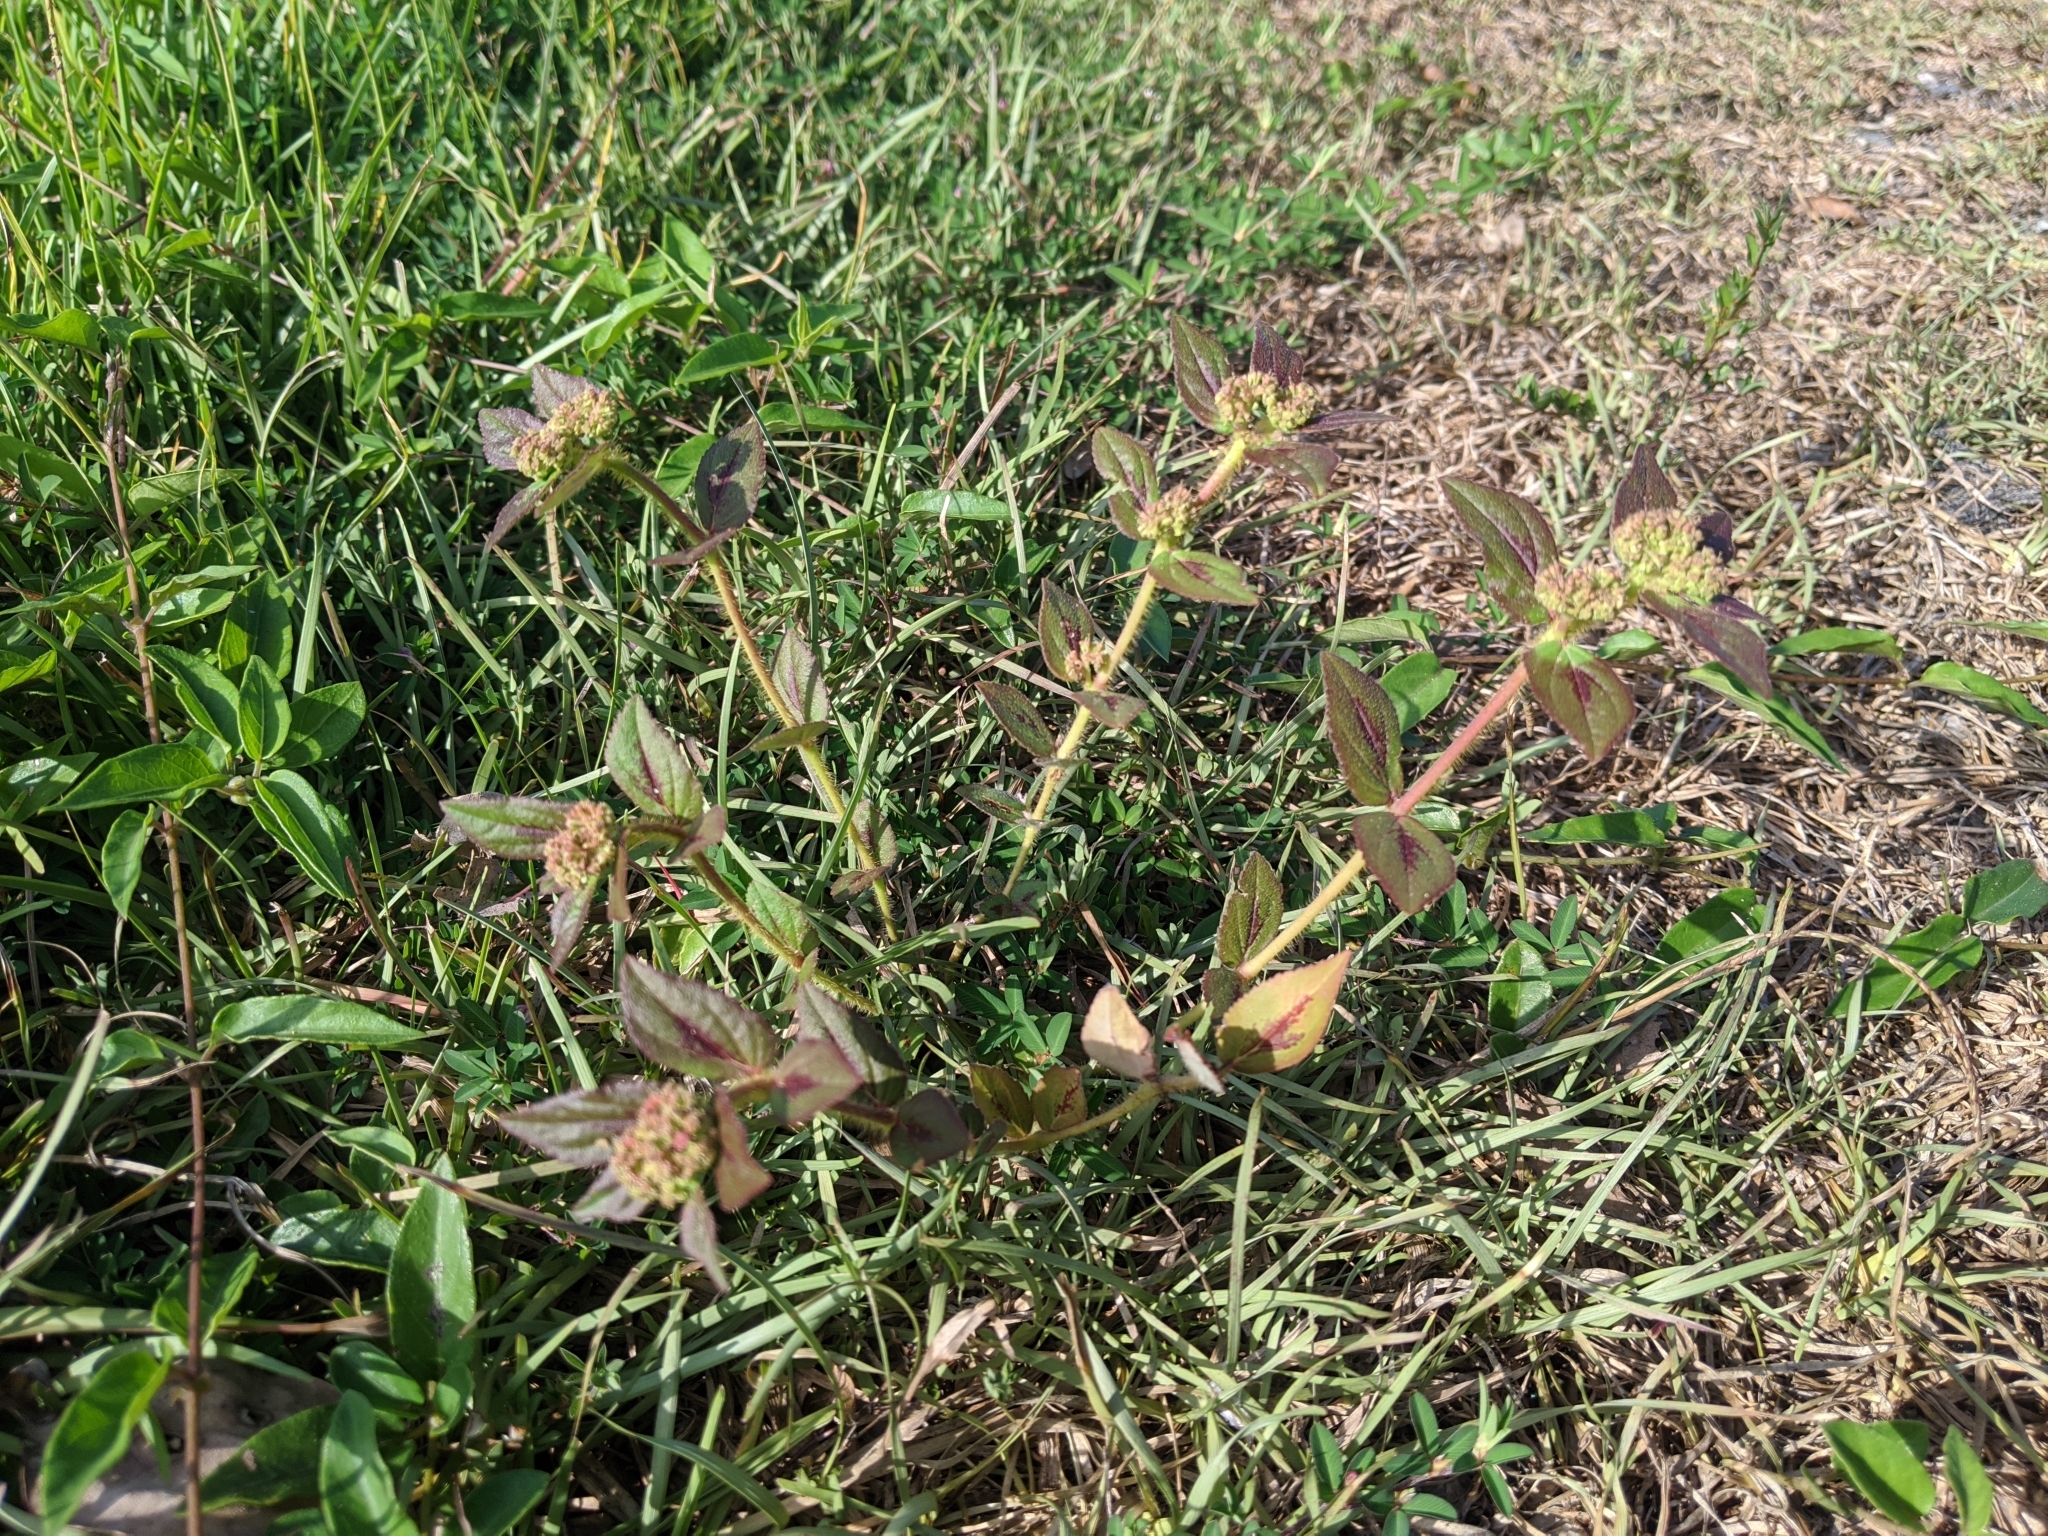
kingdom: Plantae
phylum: Tracheophyta
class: Magnoliopsida
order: Malpighiales
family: Euphorbiaceae
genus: Euphorbia
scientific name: Euphorbia hirta
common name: Pillpod sandmat
